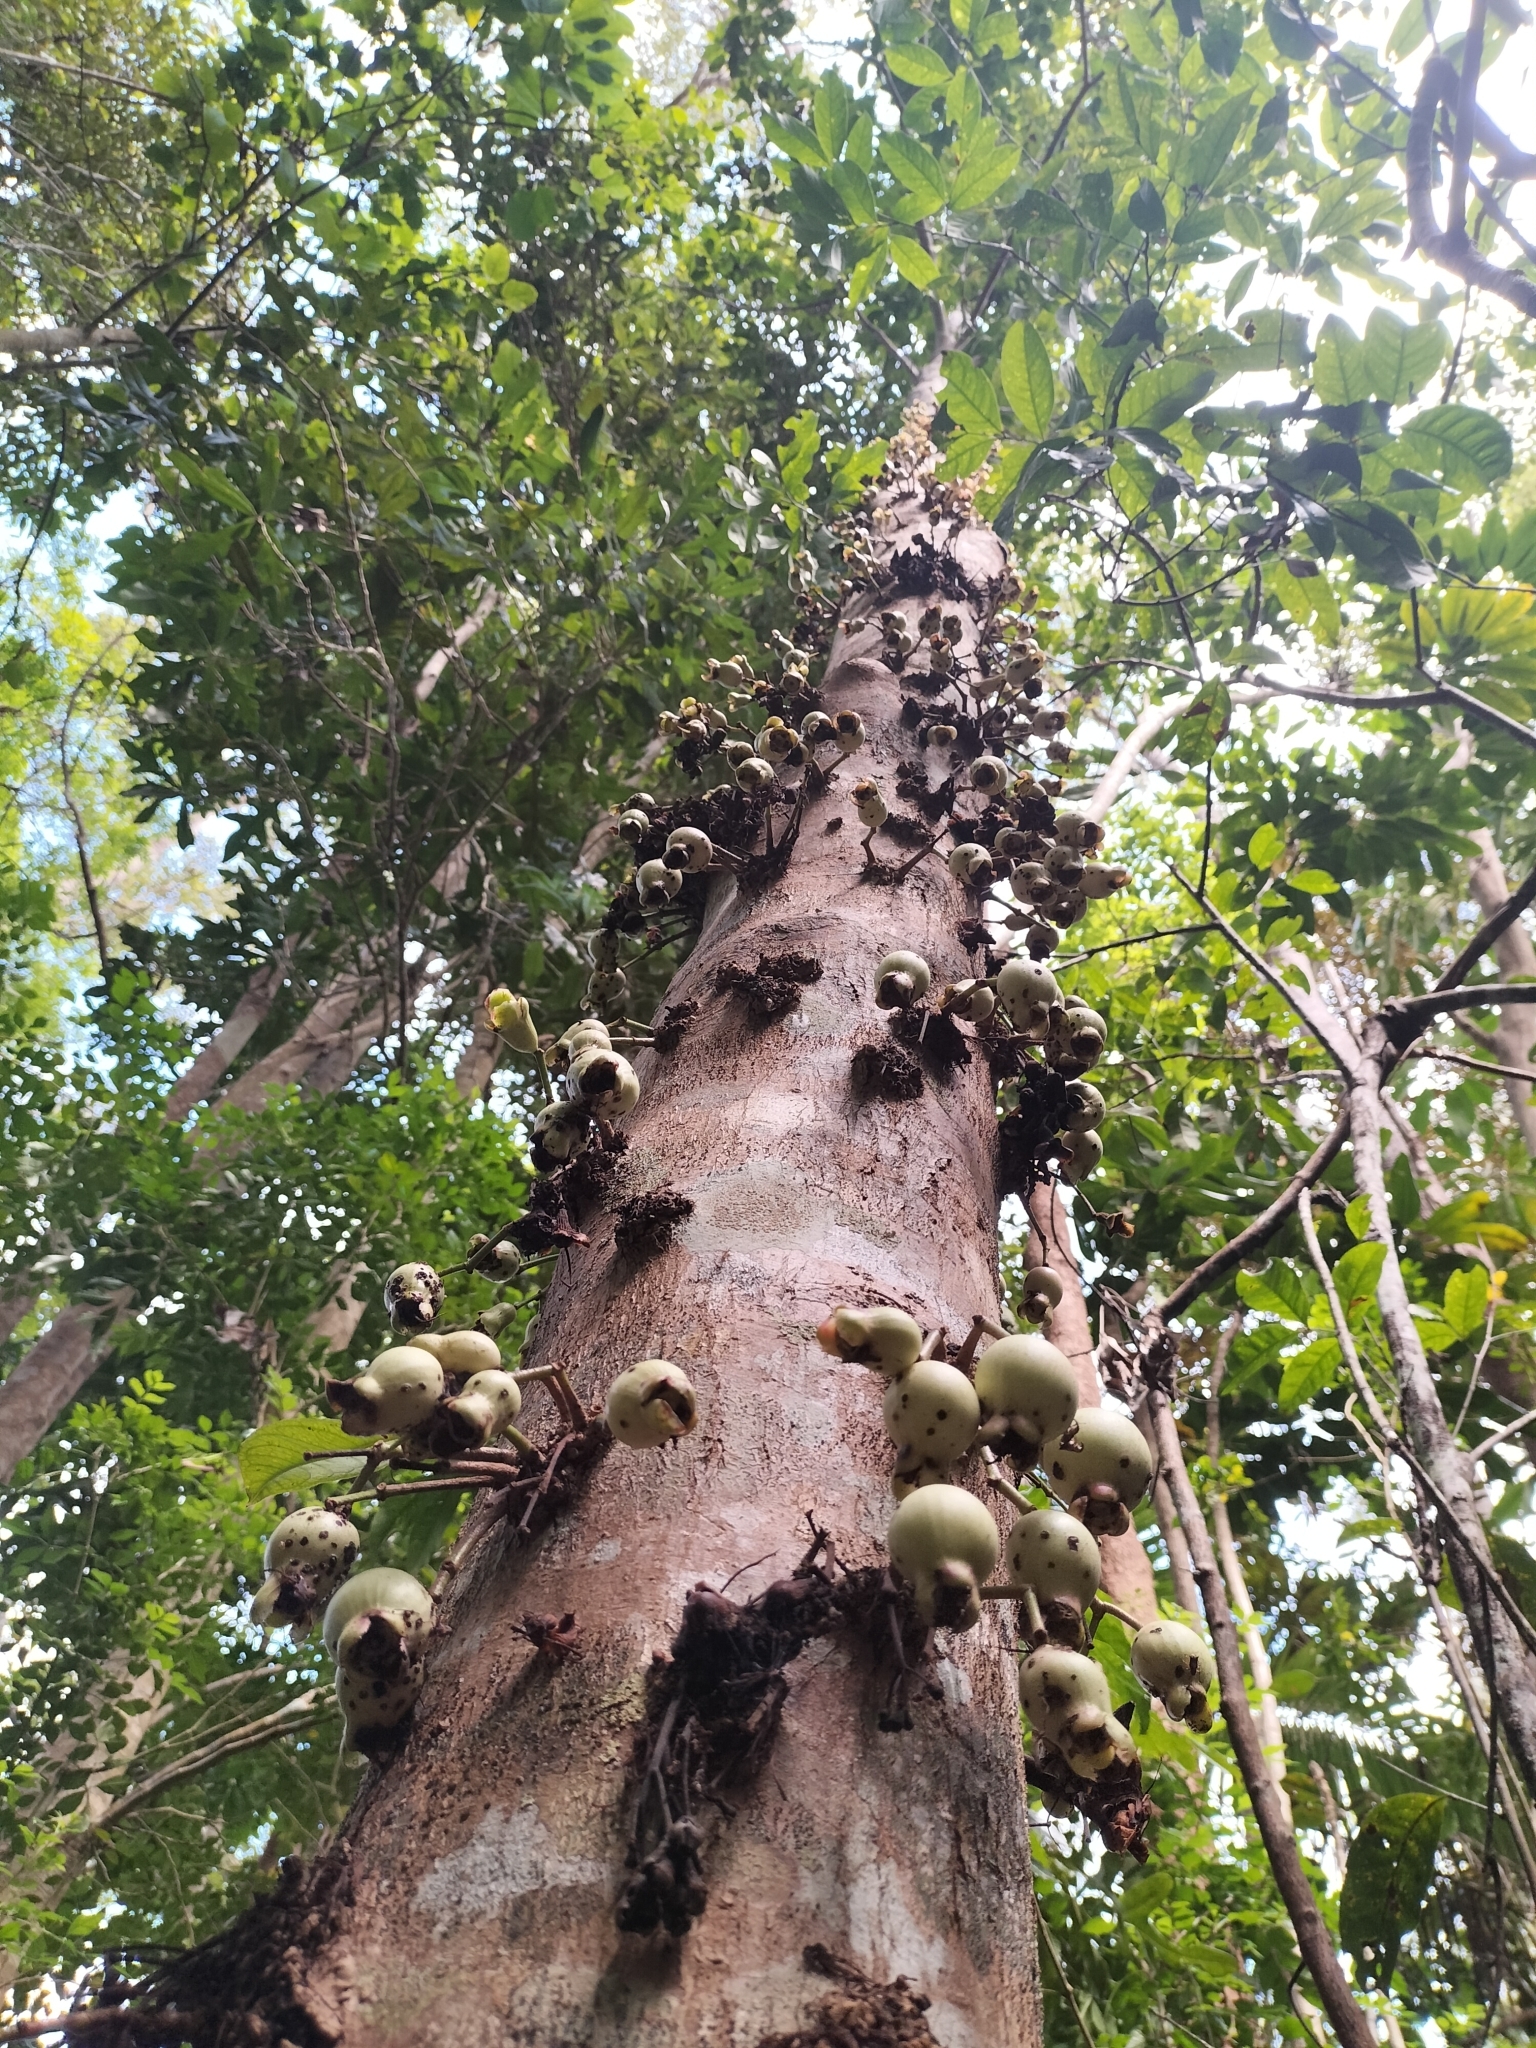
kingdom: Plantae
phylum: Tracheophyta
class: Magnoliopsida
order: Myrtales
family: Myrtaceae
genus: Syzygium
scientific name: Syzygium cormiflorum
